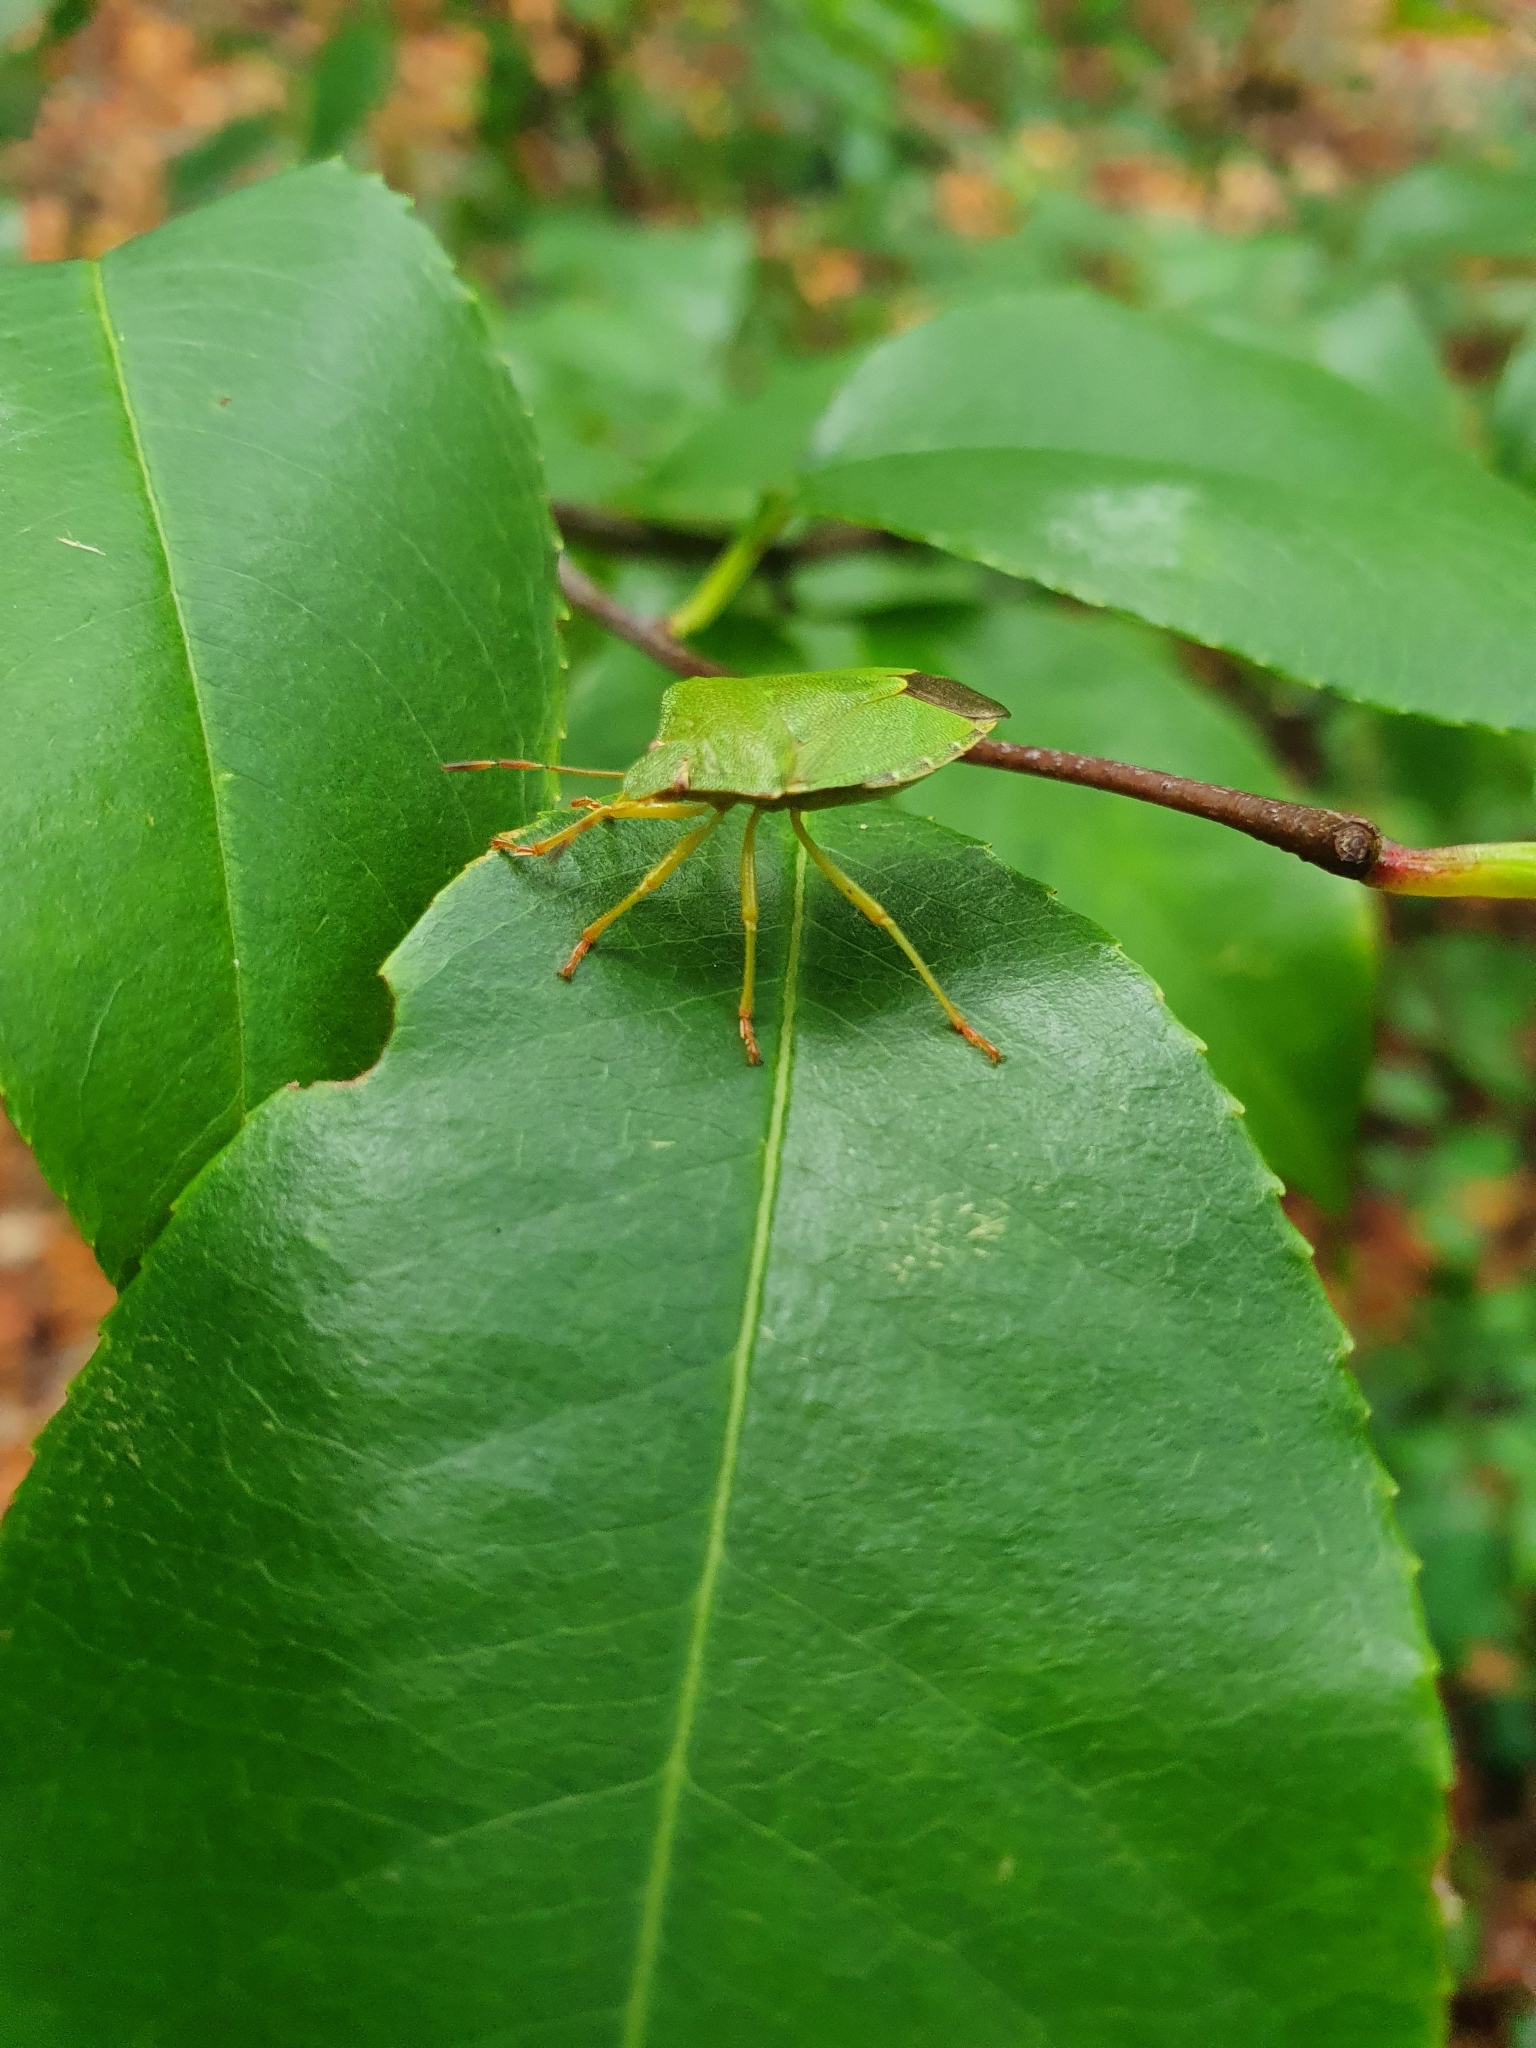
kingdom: Animalia
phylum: Arthropoda
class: Insecta
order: Hemiptera
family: Pentatomidae
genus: Palomena
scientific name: Palomena prasina
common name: Green shieldbug
